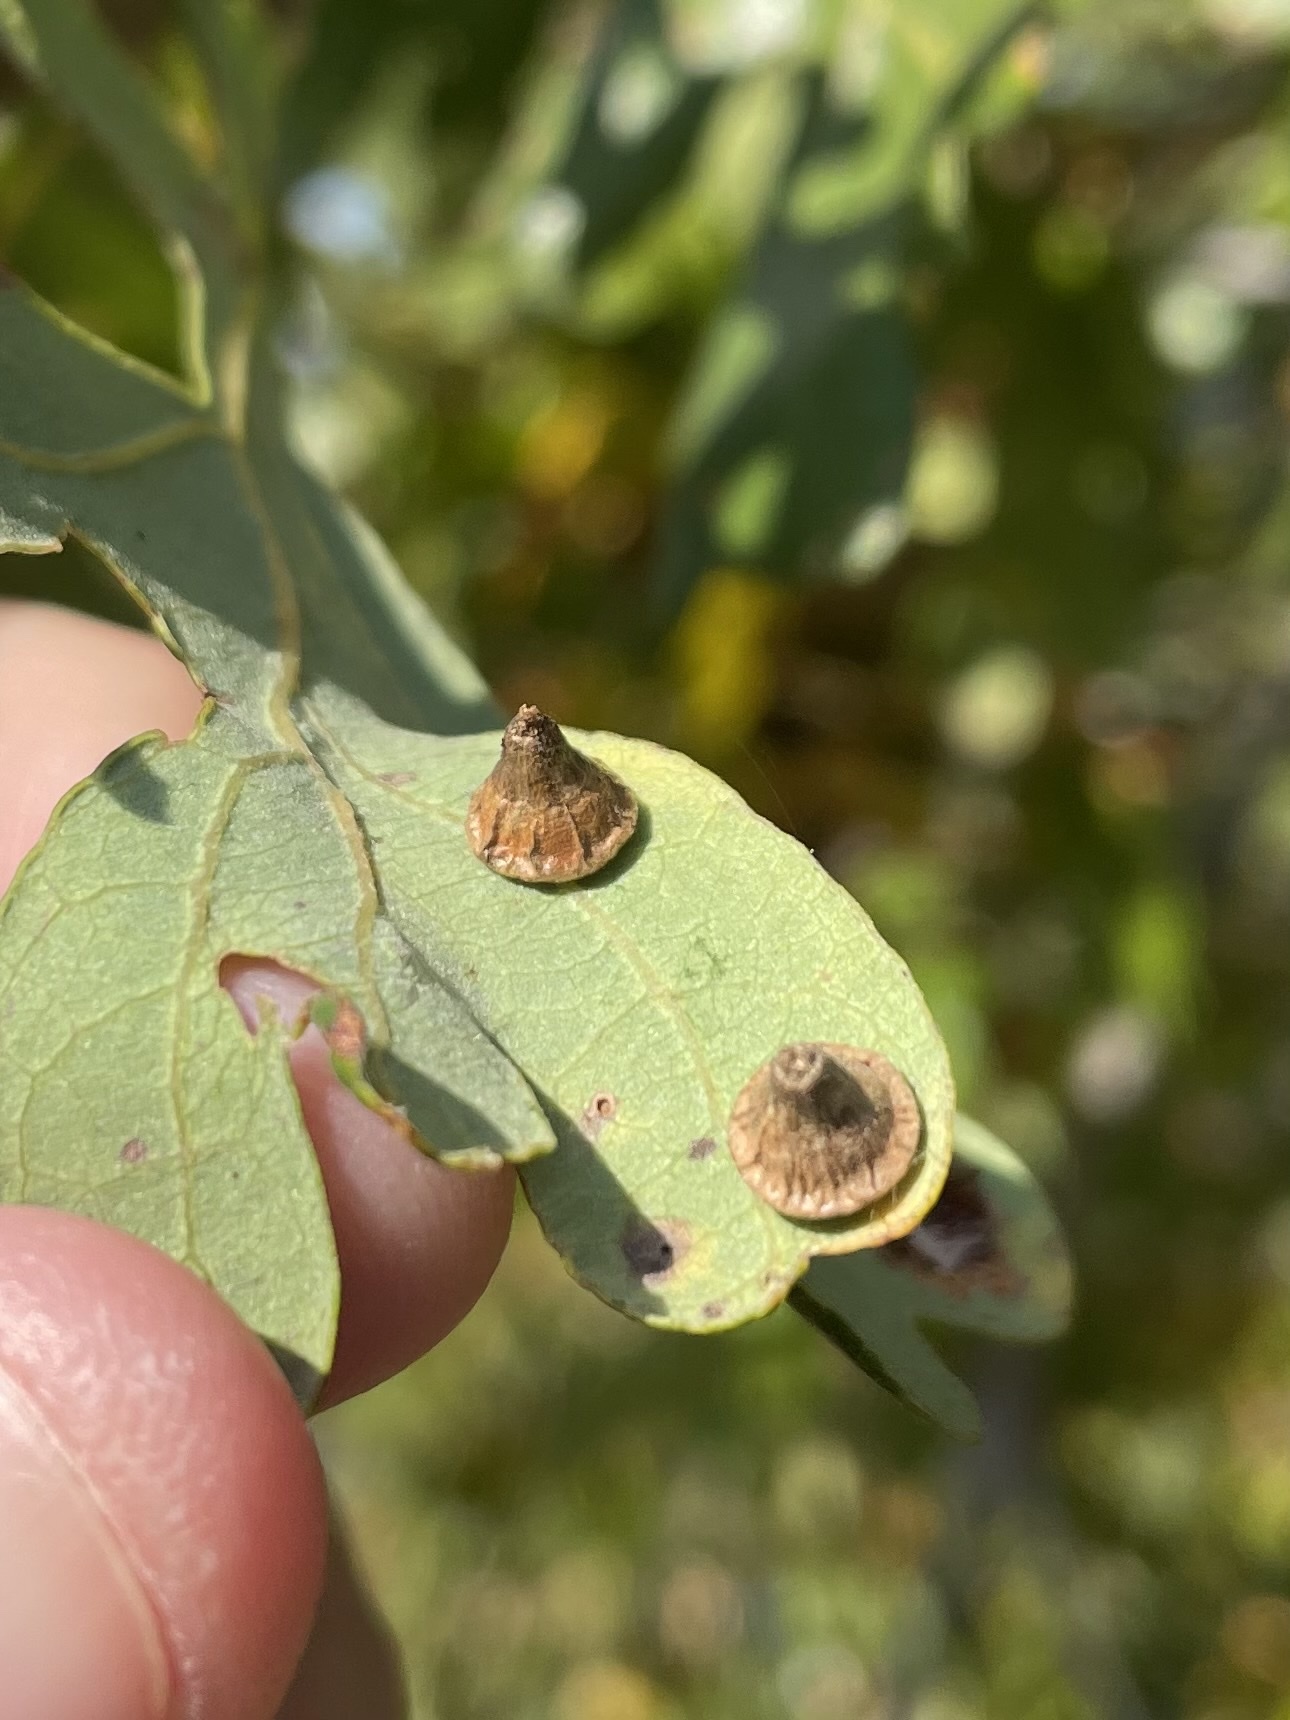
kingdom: Animalia
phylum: Arthropoda
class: Insecta
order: Hymenoptera
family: Cynipidae
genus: Andricus
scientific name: Andricus
